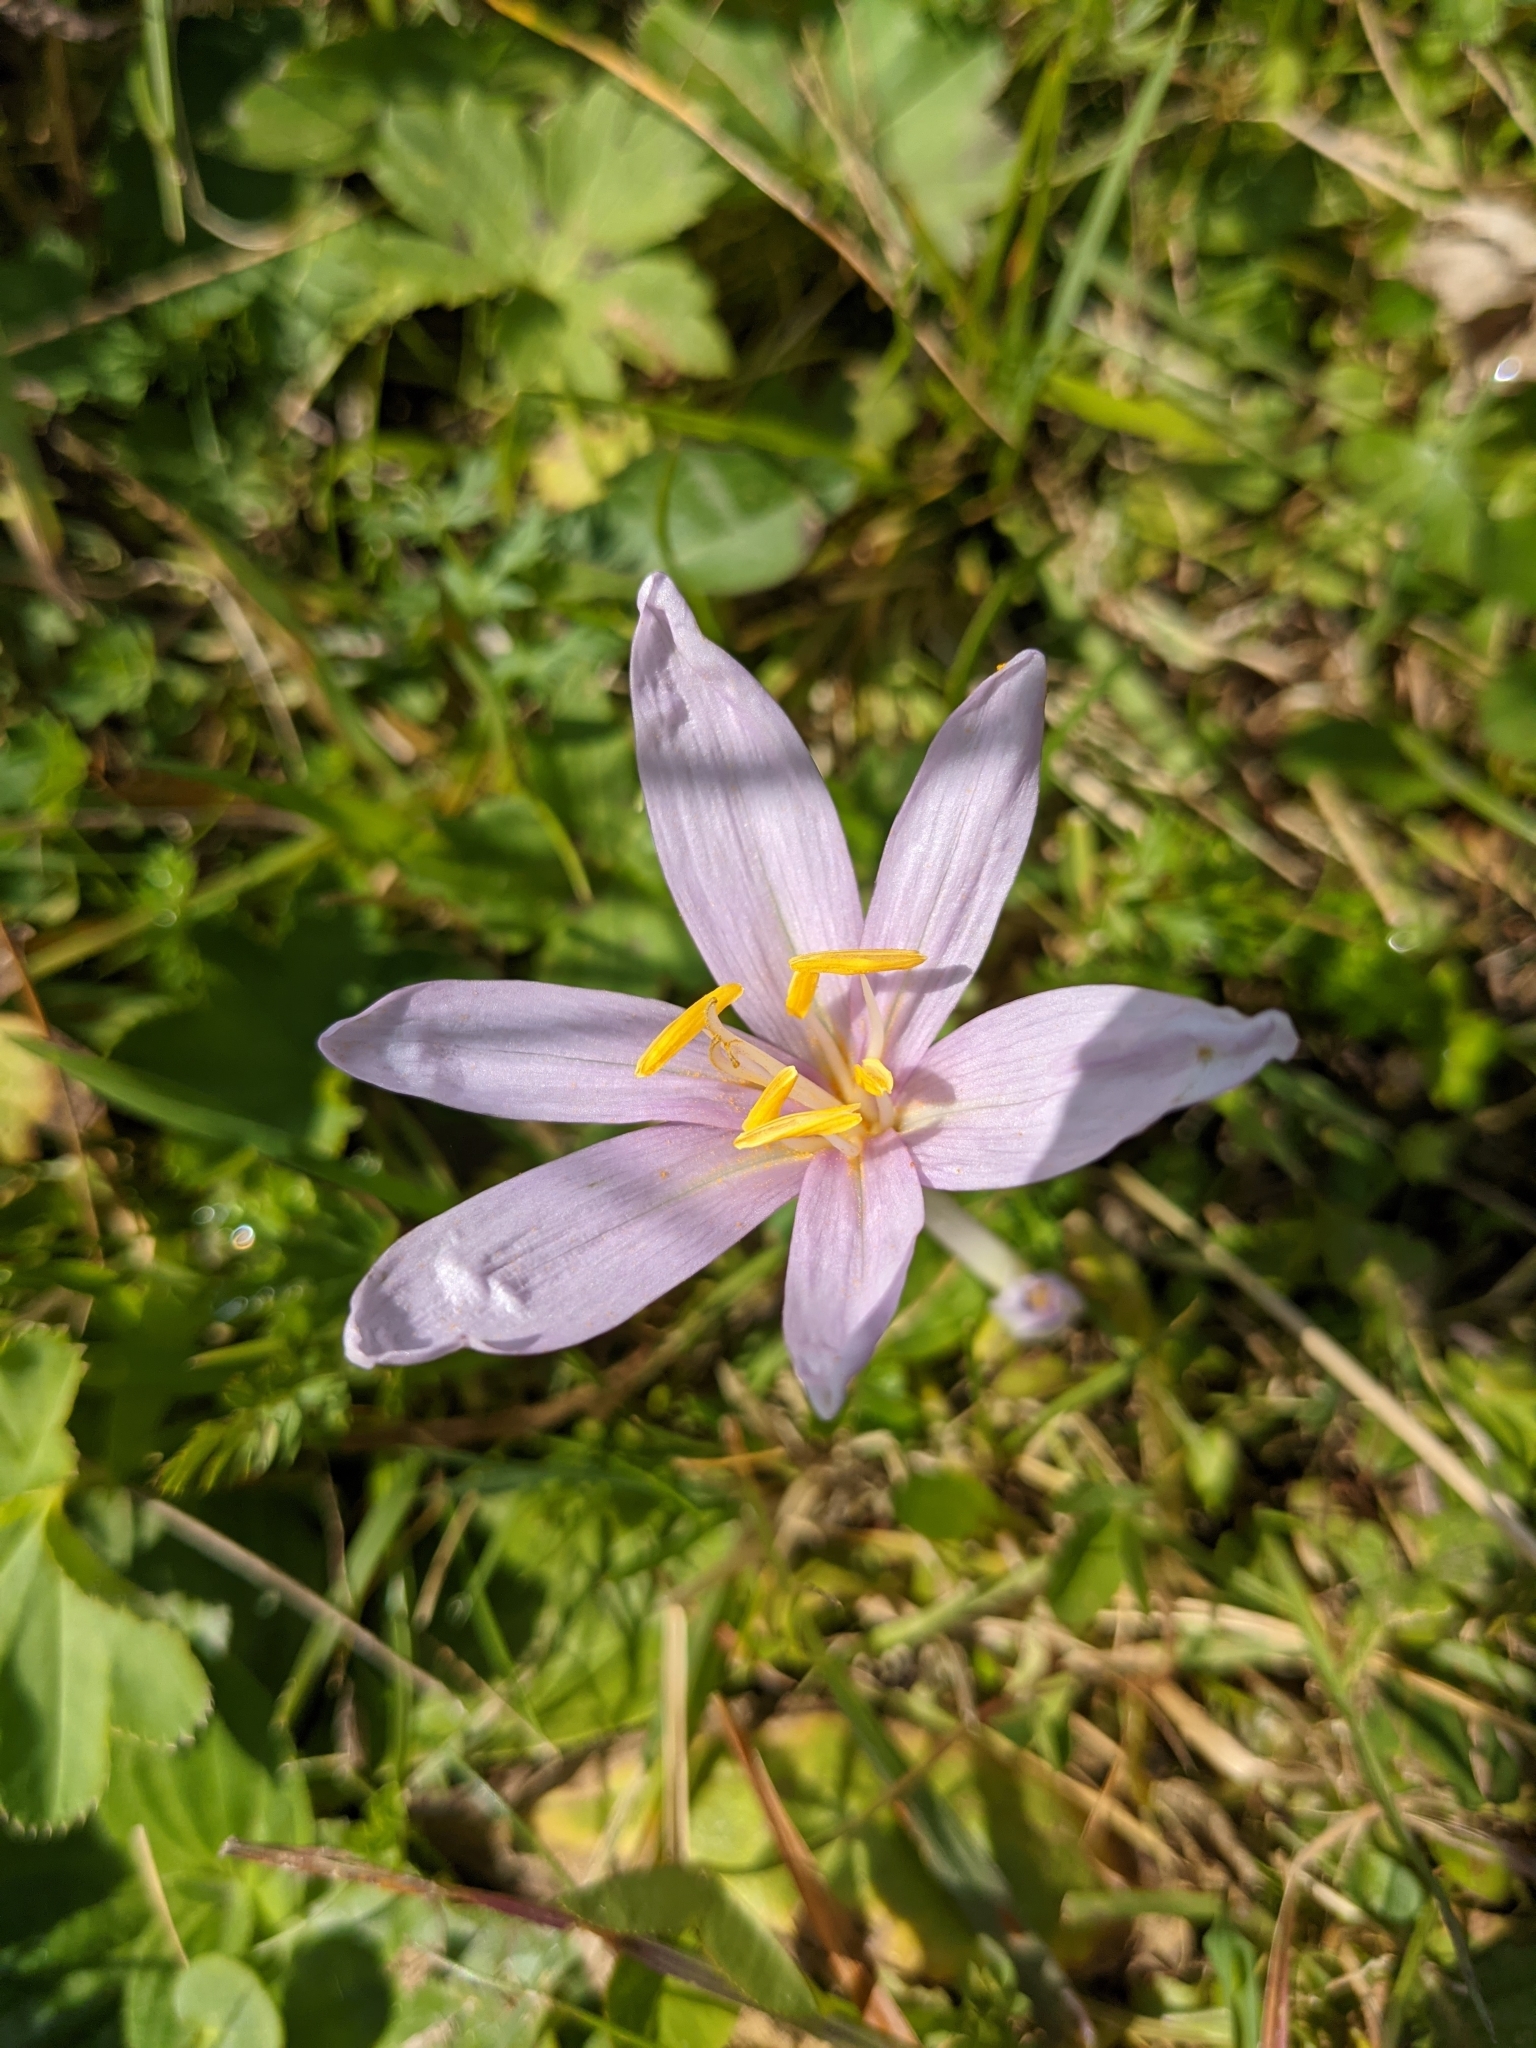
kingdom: Plantae
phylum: Tracheophyta
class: Liliopsida
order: Liliales
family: Colchicaceae
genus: Colchicum
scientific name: Colchicum autumnale
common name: Autumn crocus
